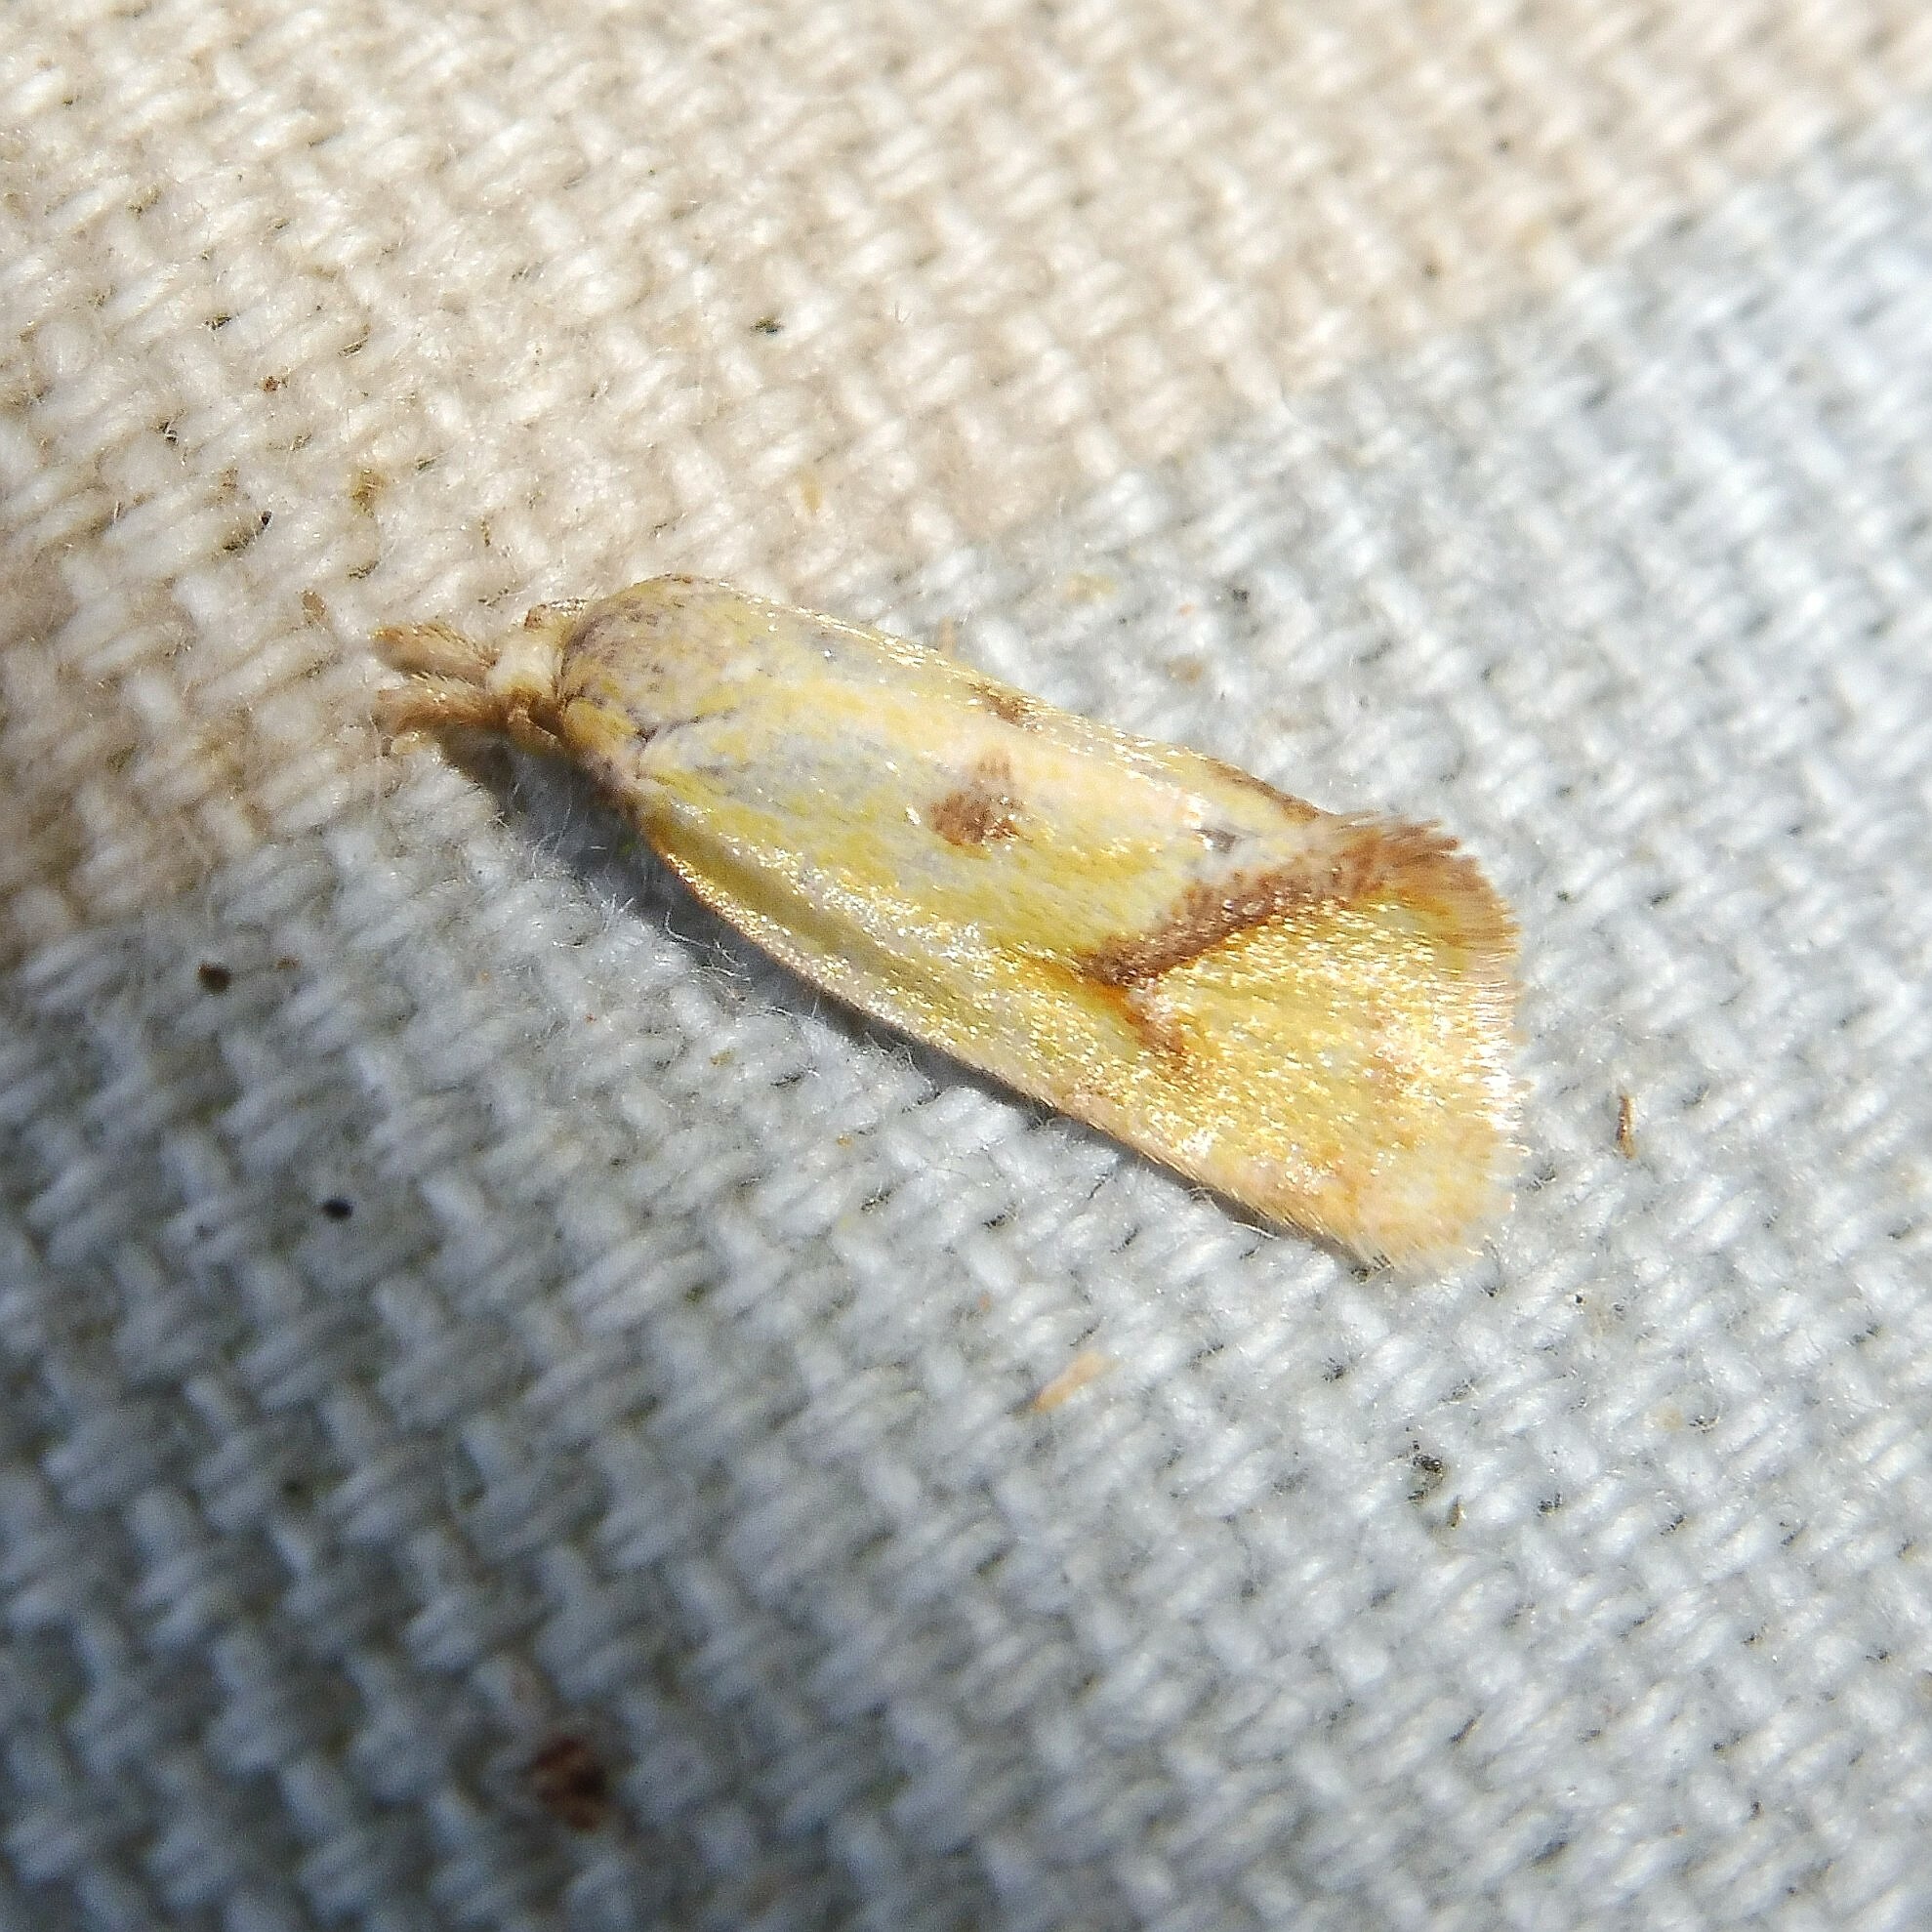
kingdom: Animalia
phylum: Arthropoda
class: Insecta
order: Lepidoptera
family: Tortricidae
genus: Agapeta
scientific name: Agapeta hamana
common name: Common yellow conch
